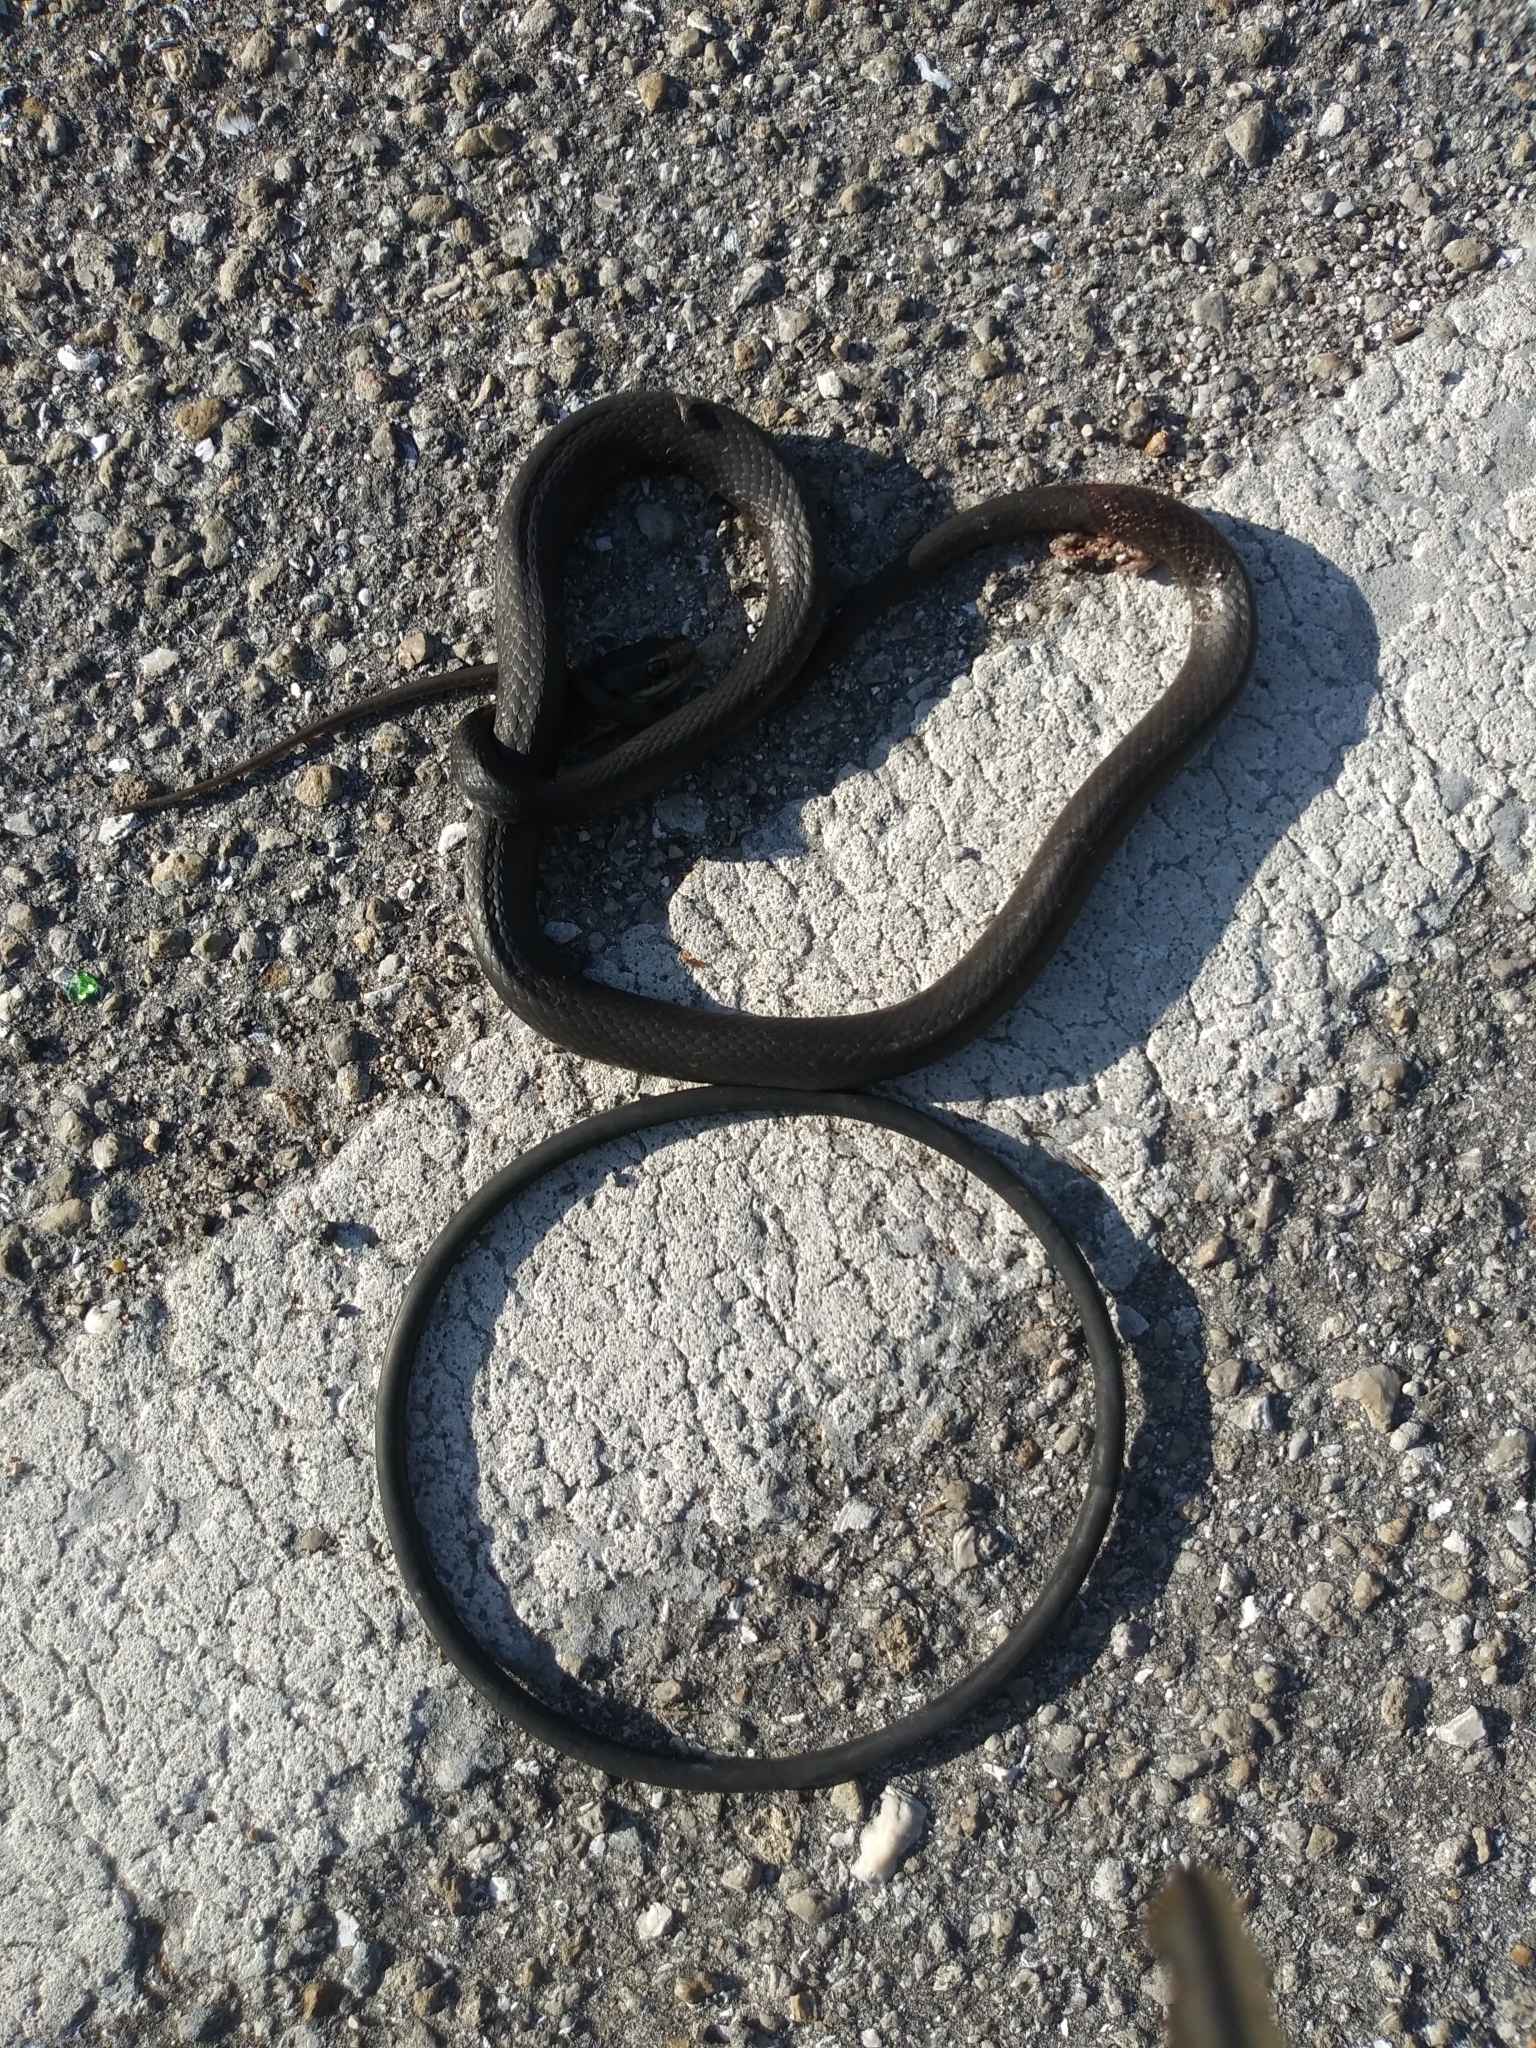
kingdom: Animalia
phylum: Chordata
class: Squamata
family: Colubridae
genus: Coluber
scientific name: Coluber constrictor
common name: Eastern racer
